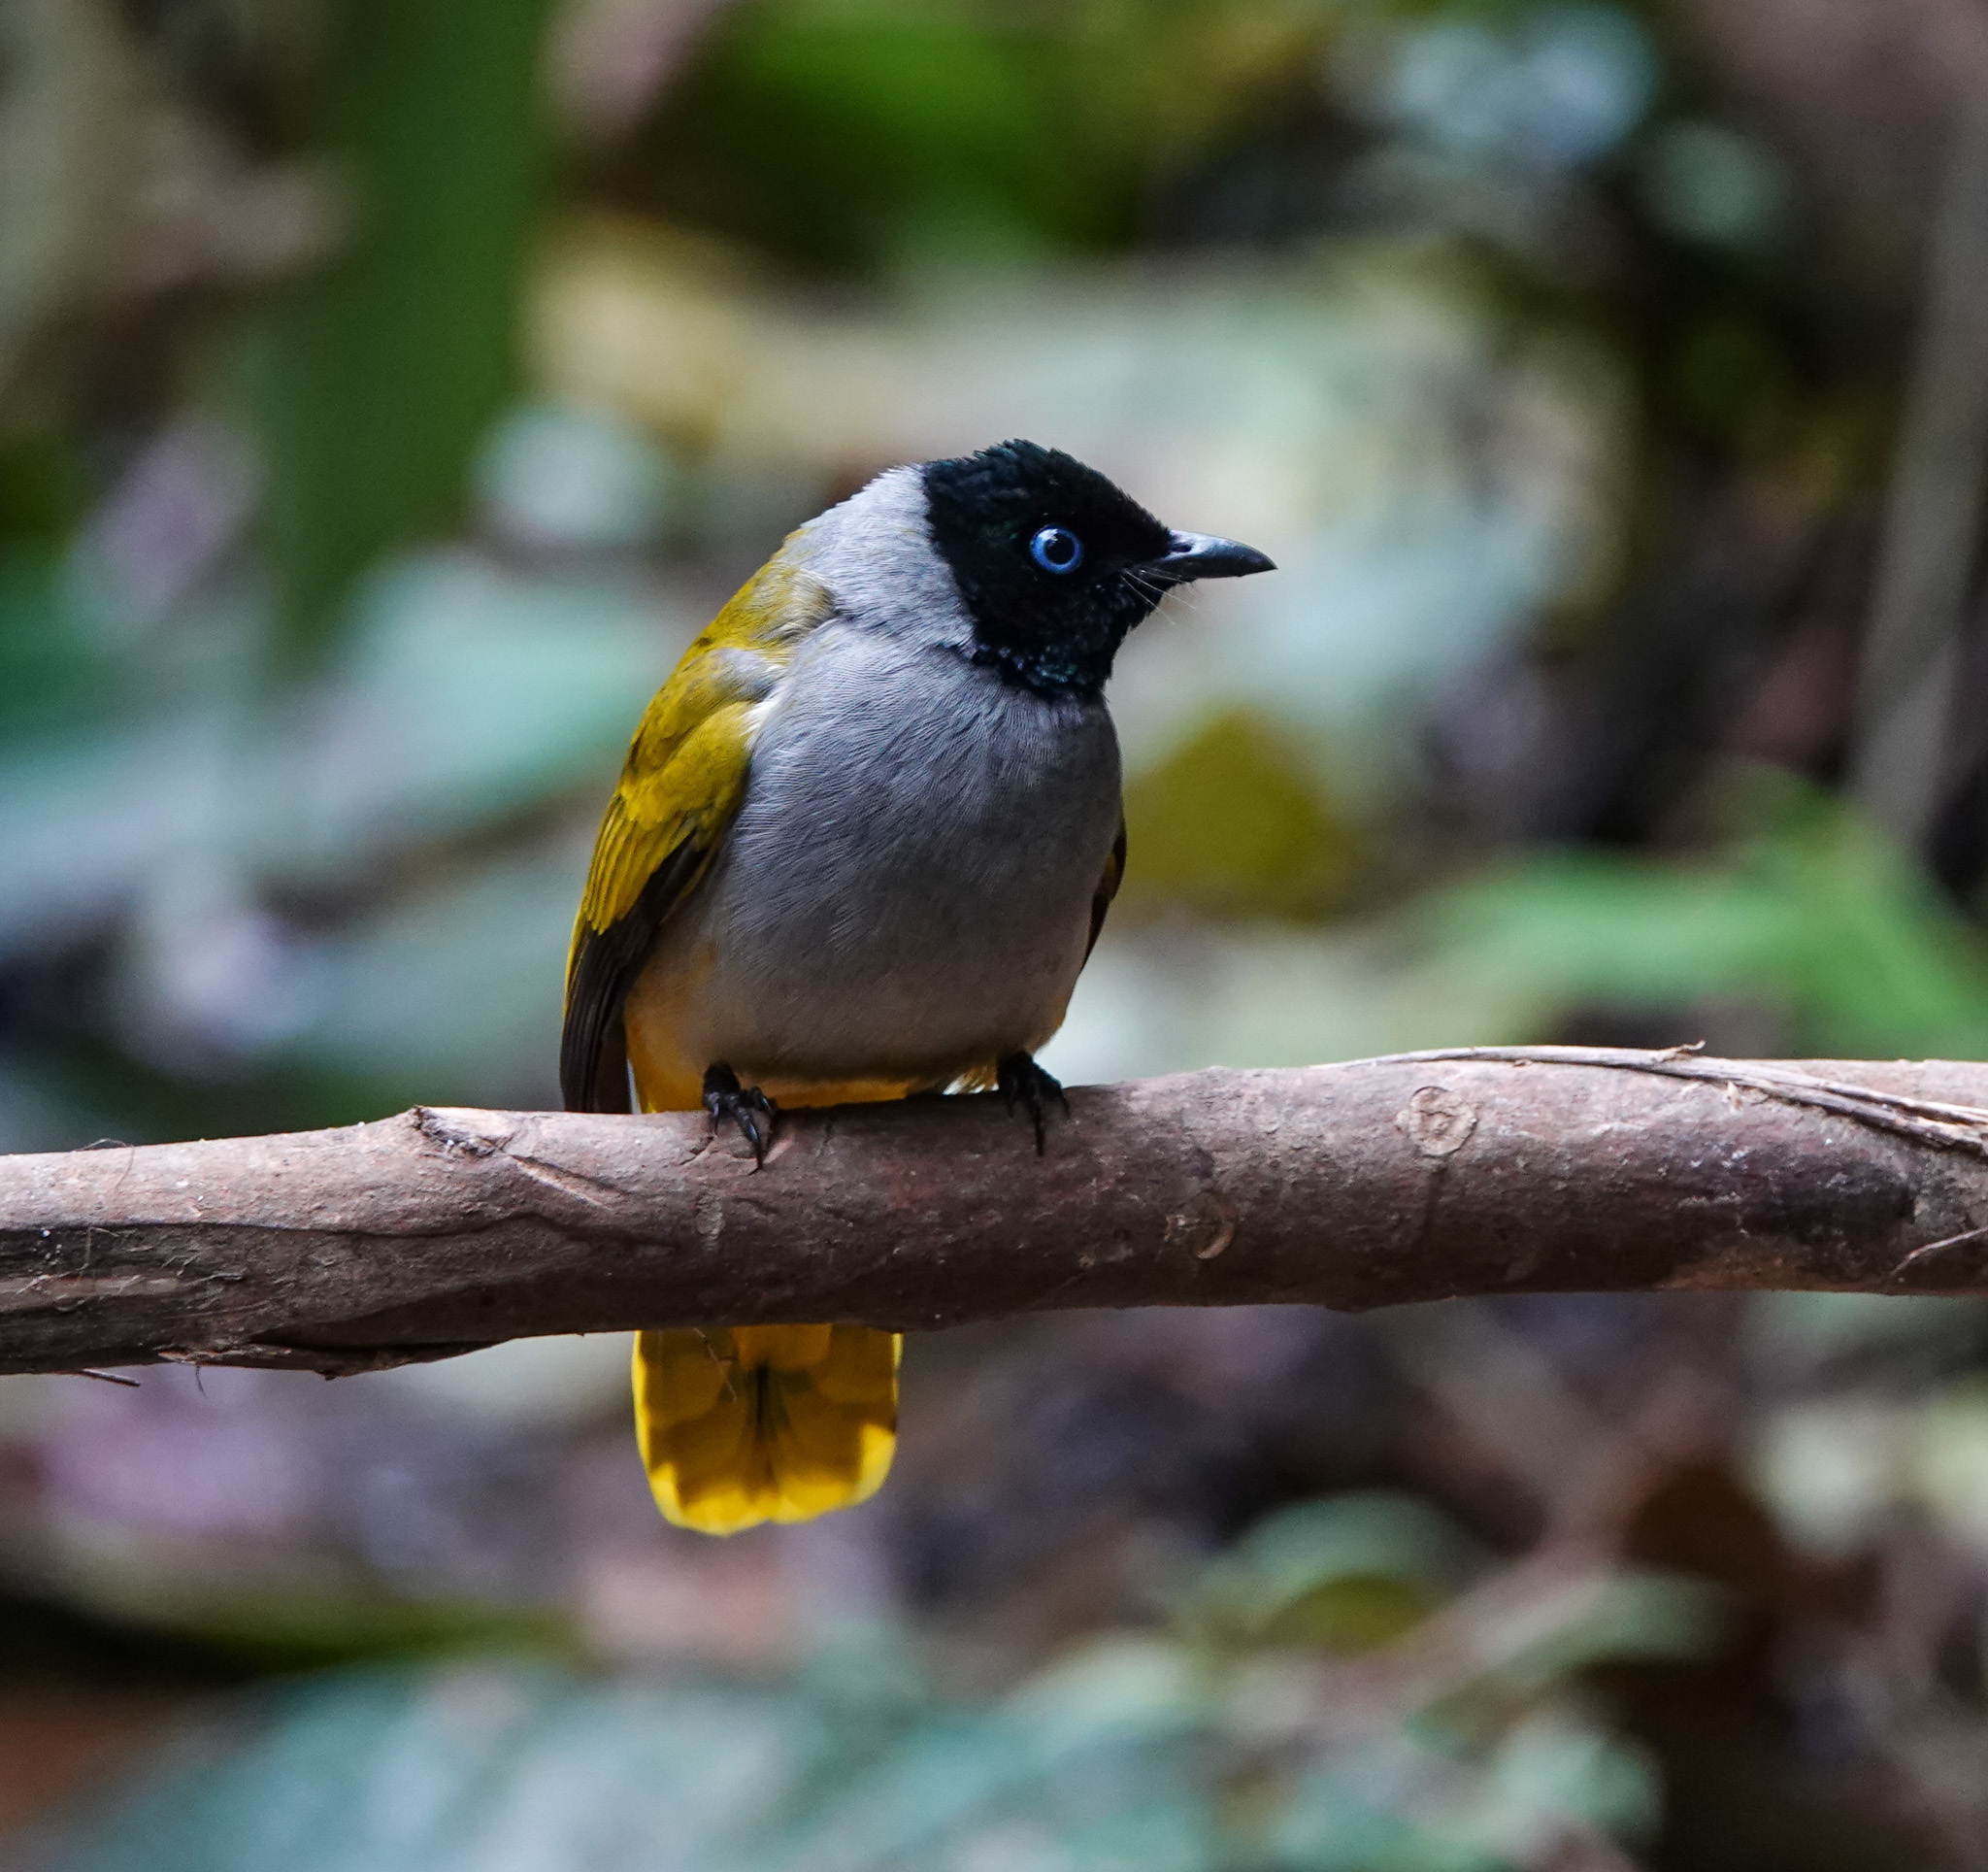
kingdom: Animalia
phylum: Chordata
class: Aves
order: Passeriformes
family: Pycnonotidae
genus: Microtarsus
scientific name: Microtarsus
